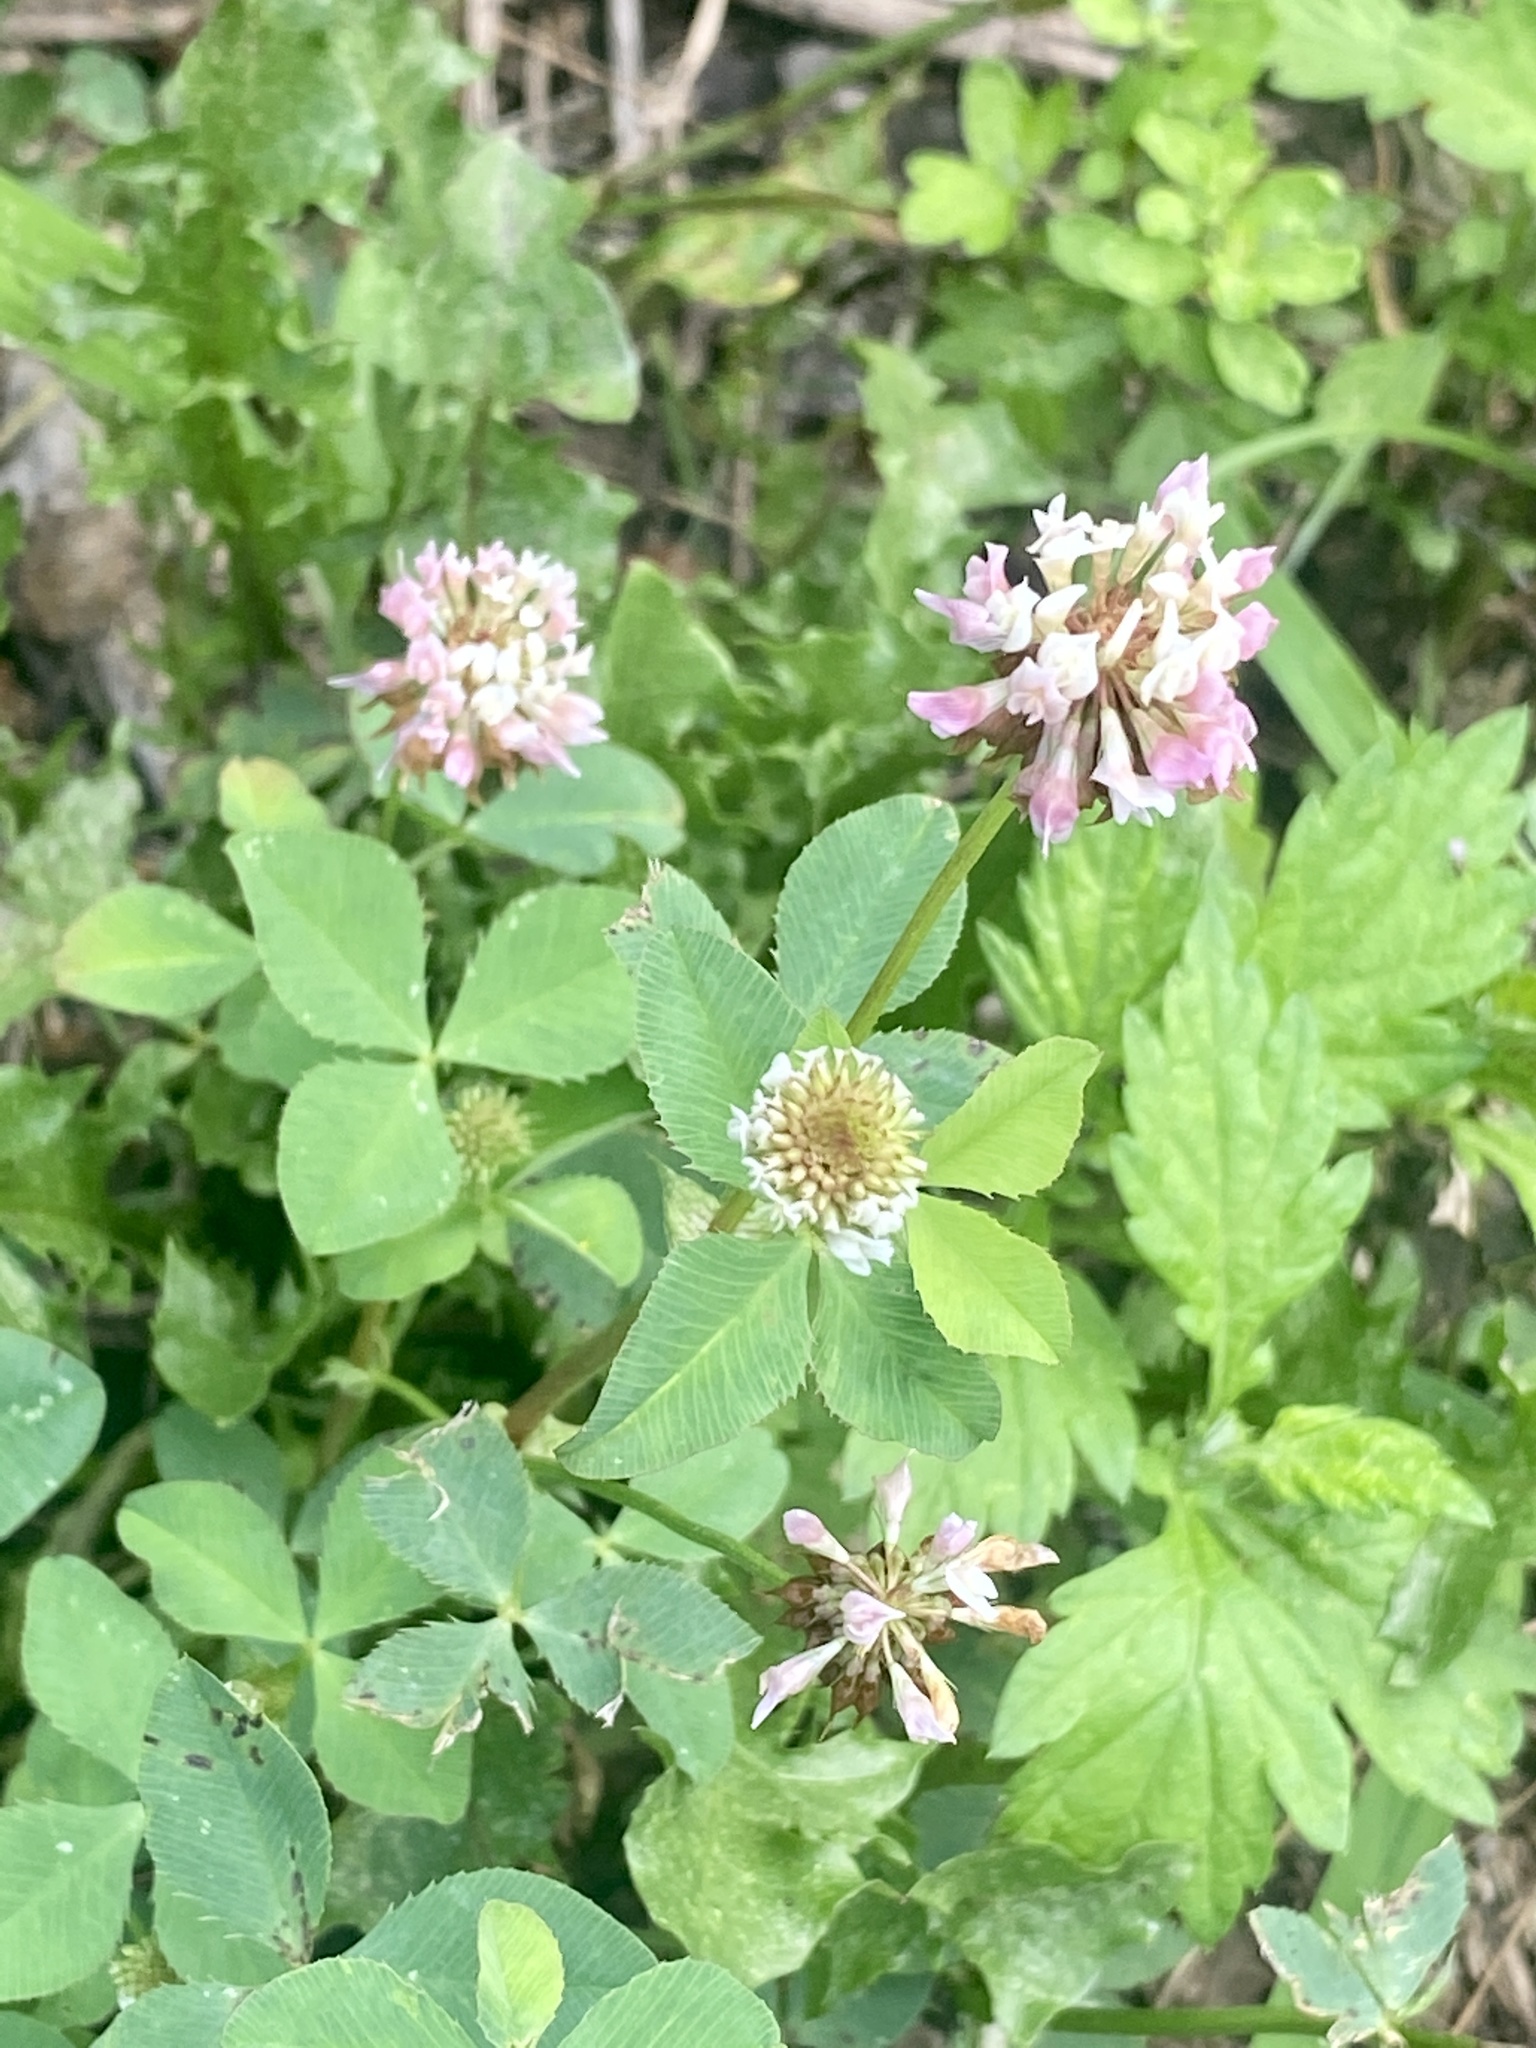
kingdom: Plantae
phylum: Tracheophyta
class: Magnoliopsida
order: Fabales
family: Fabaceae
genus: Trifolium
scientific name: Trifolium hybridum
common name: Alsike clover
